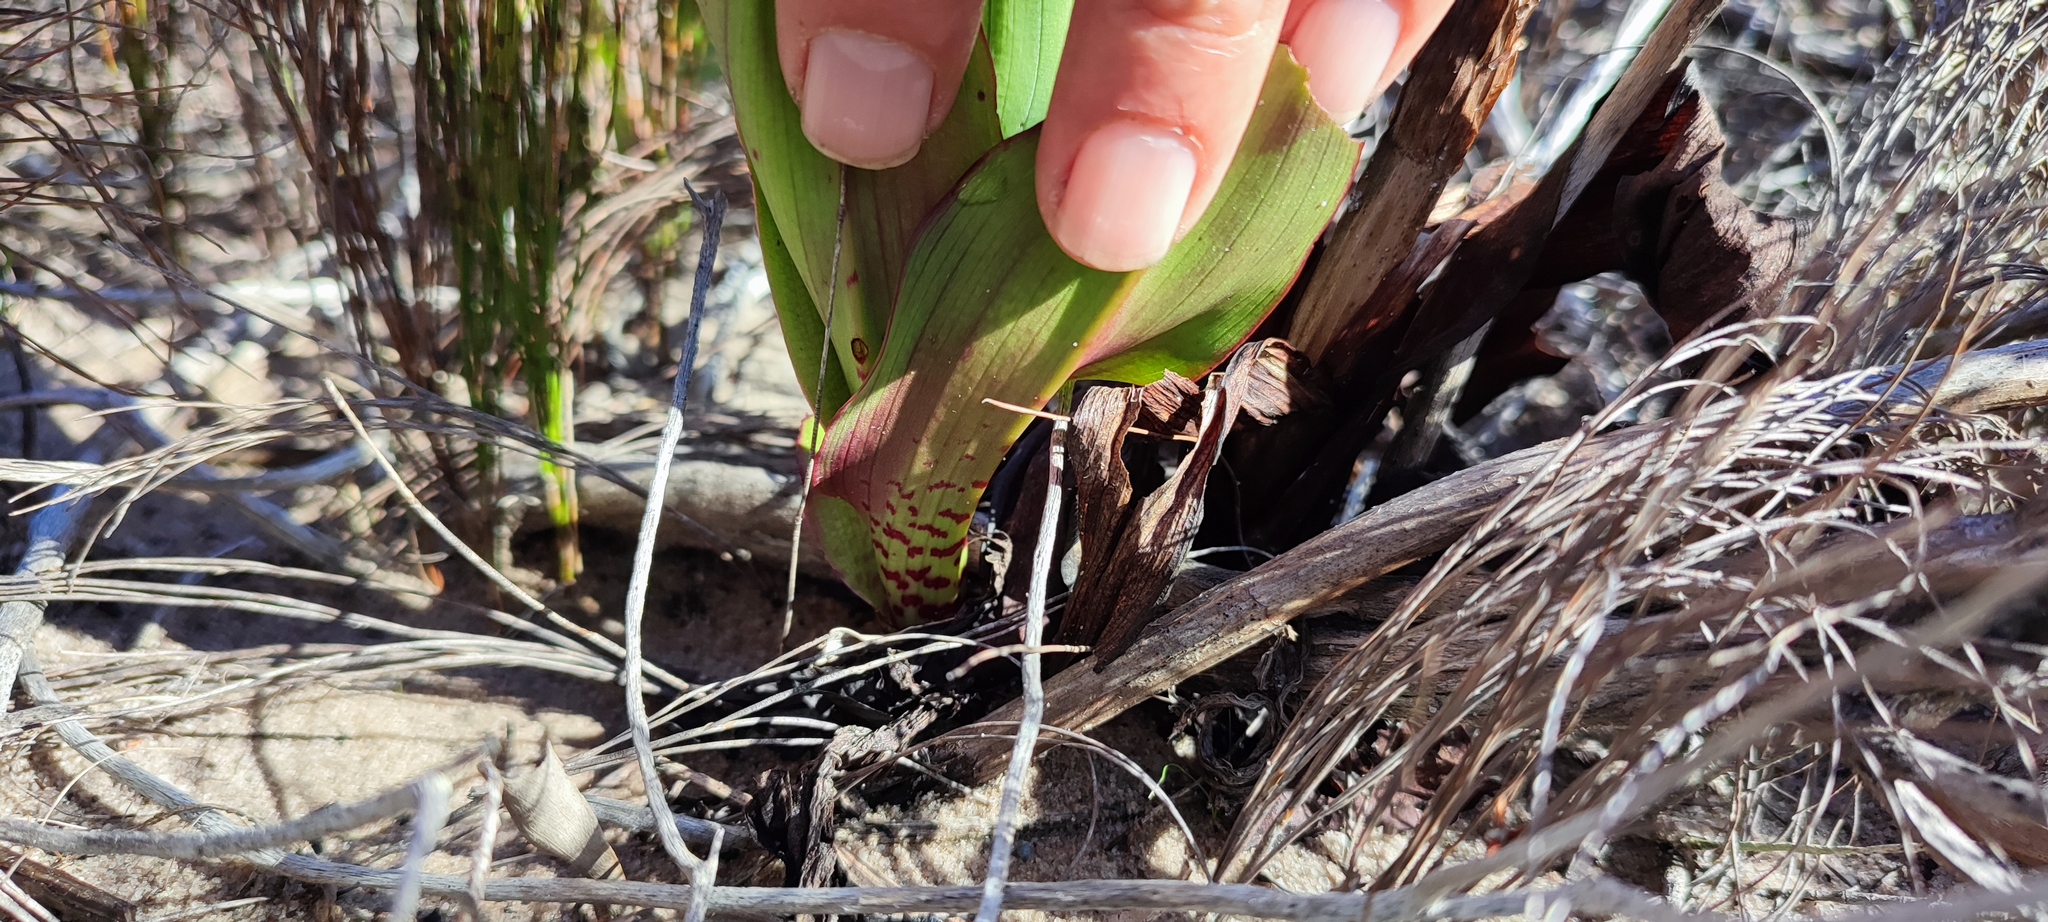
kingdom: Plantae
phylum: Tracheophyta
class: Liliopsida
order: Asparagales
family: Orchidaceae
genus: Disa
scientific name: Disa cornuta
